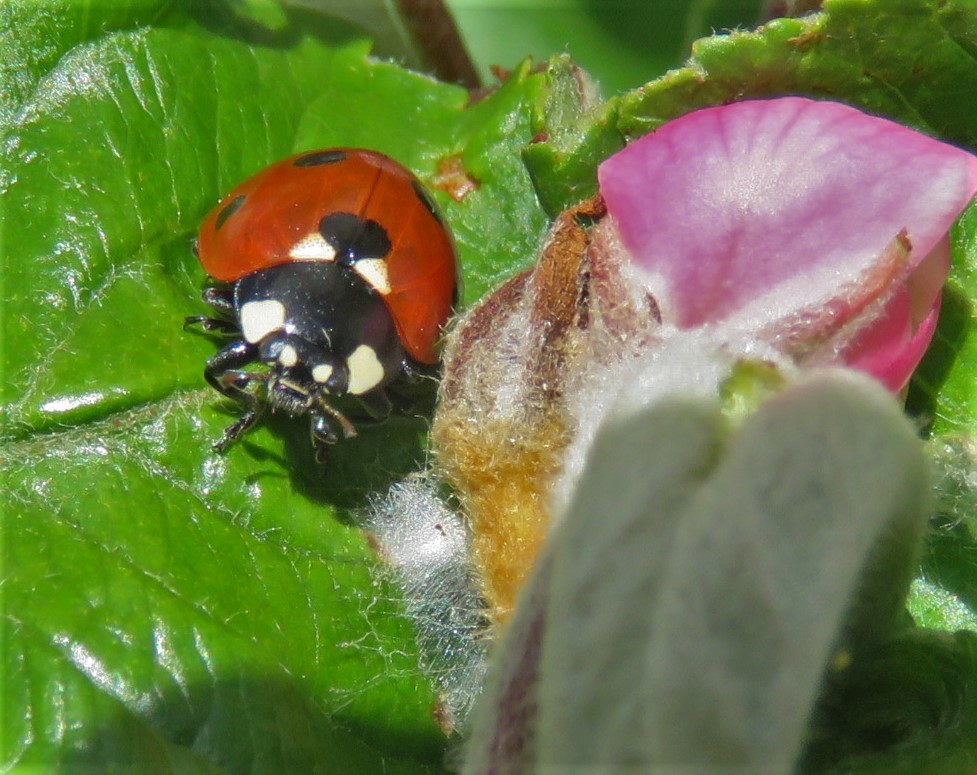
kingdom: Animalia
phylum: Arthropoda
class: Insecta
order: Coleoptera
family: Coccinellidae
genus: Coccinella
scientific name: Coccinella septempunctata
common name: Sevenspotted lady beetle
